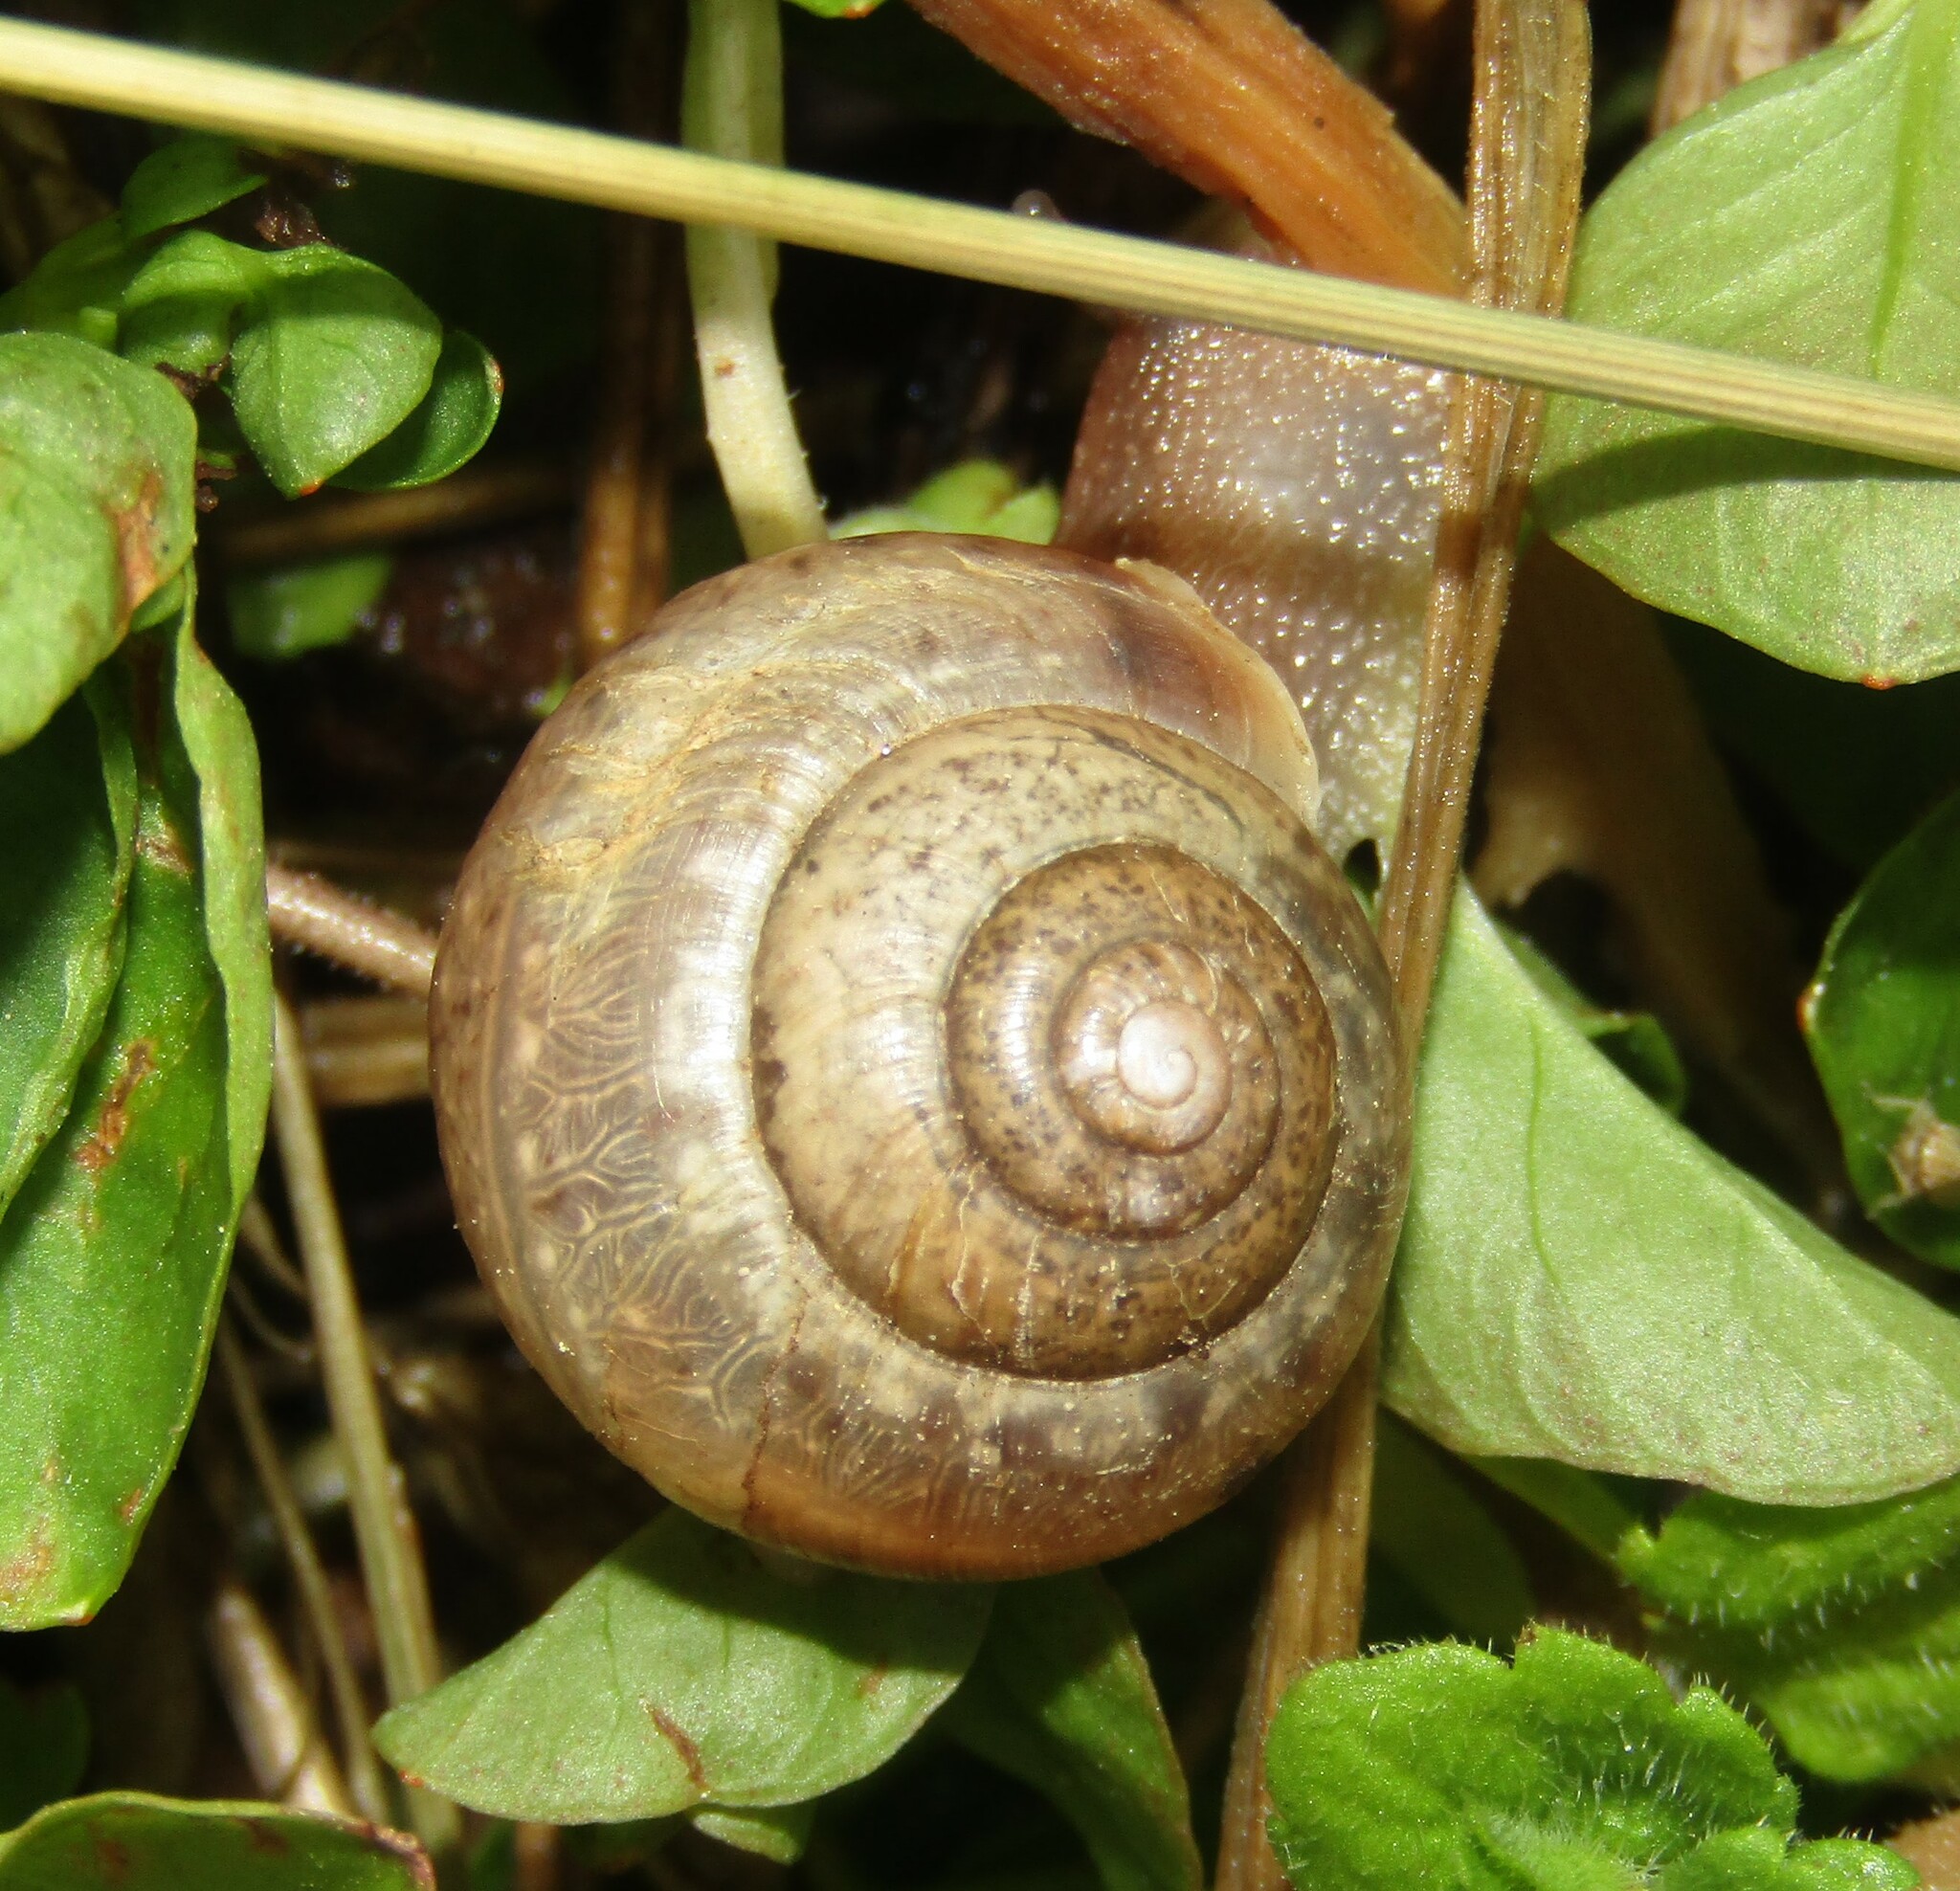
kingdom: Animalia
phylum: Mollusca
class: Gastropoda
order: Stylommatophora
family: Camaenidae
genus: Fruticicola
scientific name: Fruticicola fruticum
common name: Bush snail
